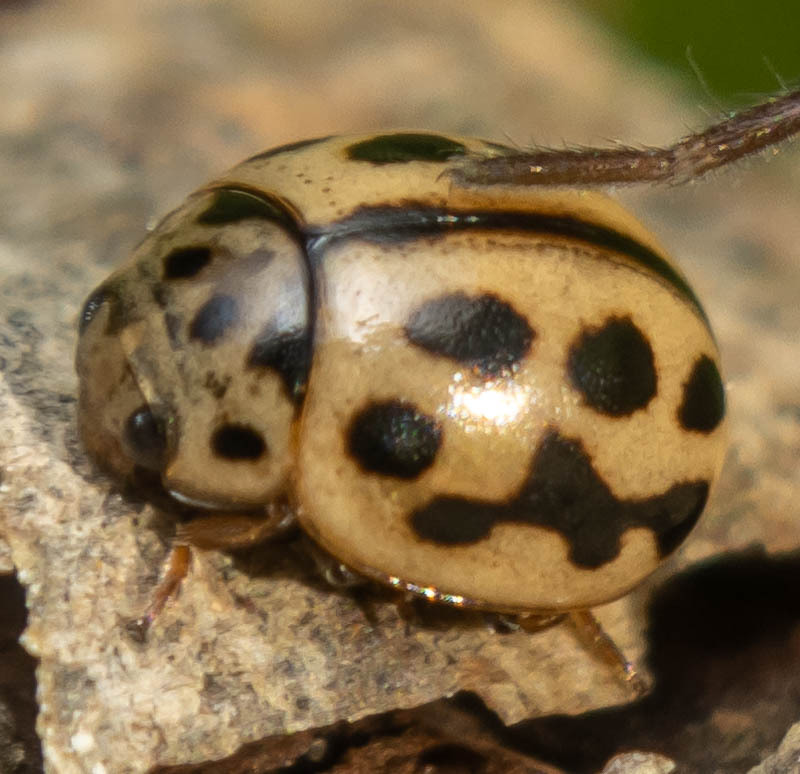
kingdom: Animalia
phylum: Arthropoda
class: Insecta
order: Coleoptera
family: Coccinellidae
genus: Tytthaspis
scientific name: Tytthaspis sedecimpunctata
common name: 16-spot ladybird
